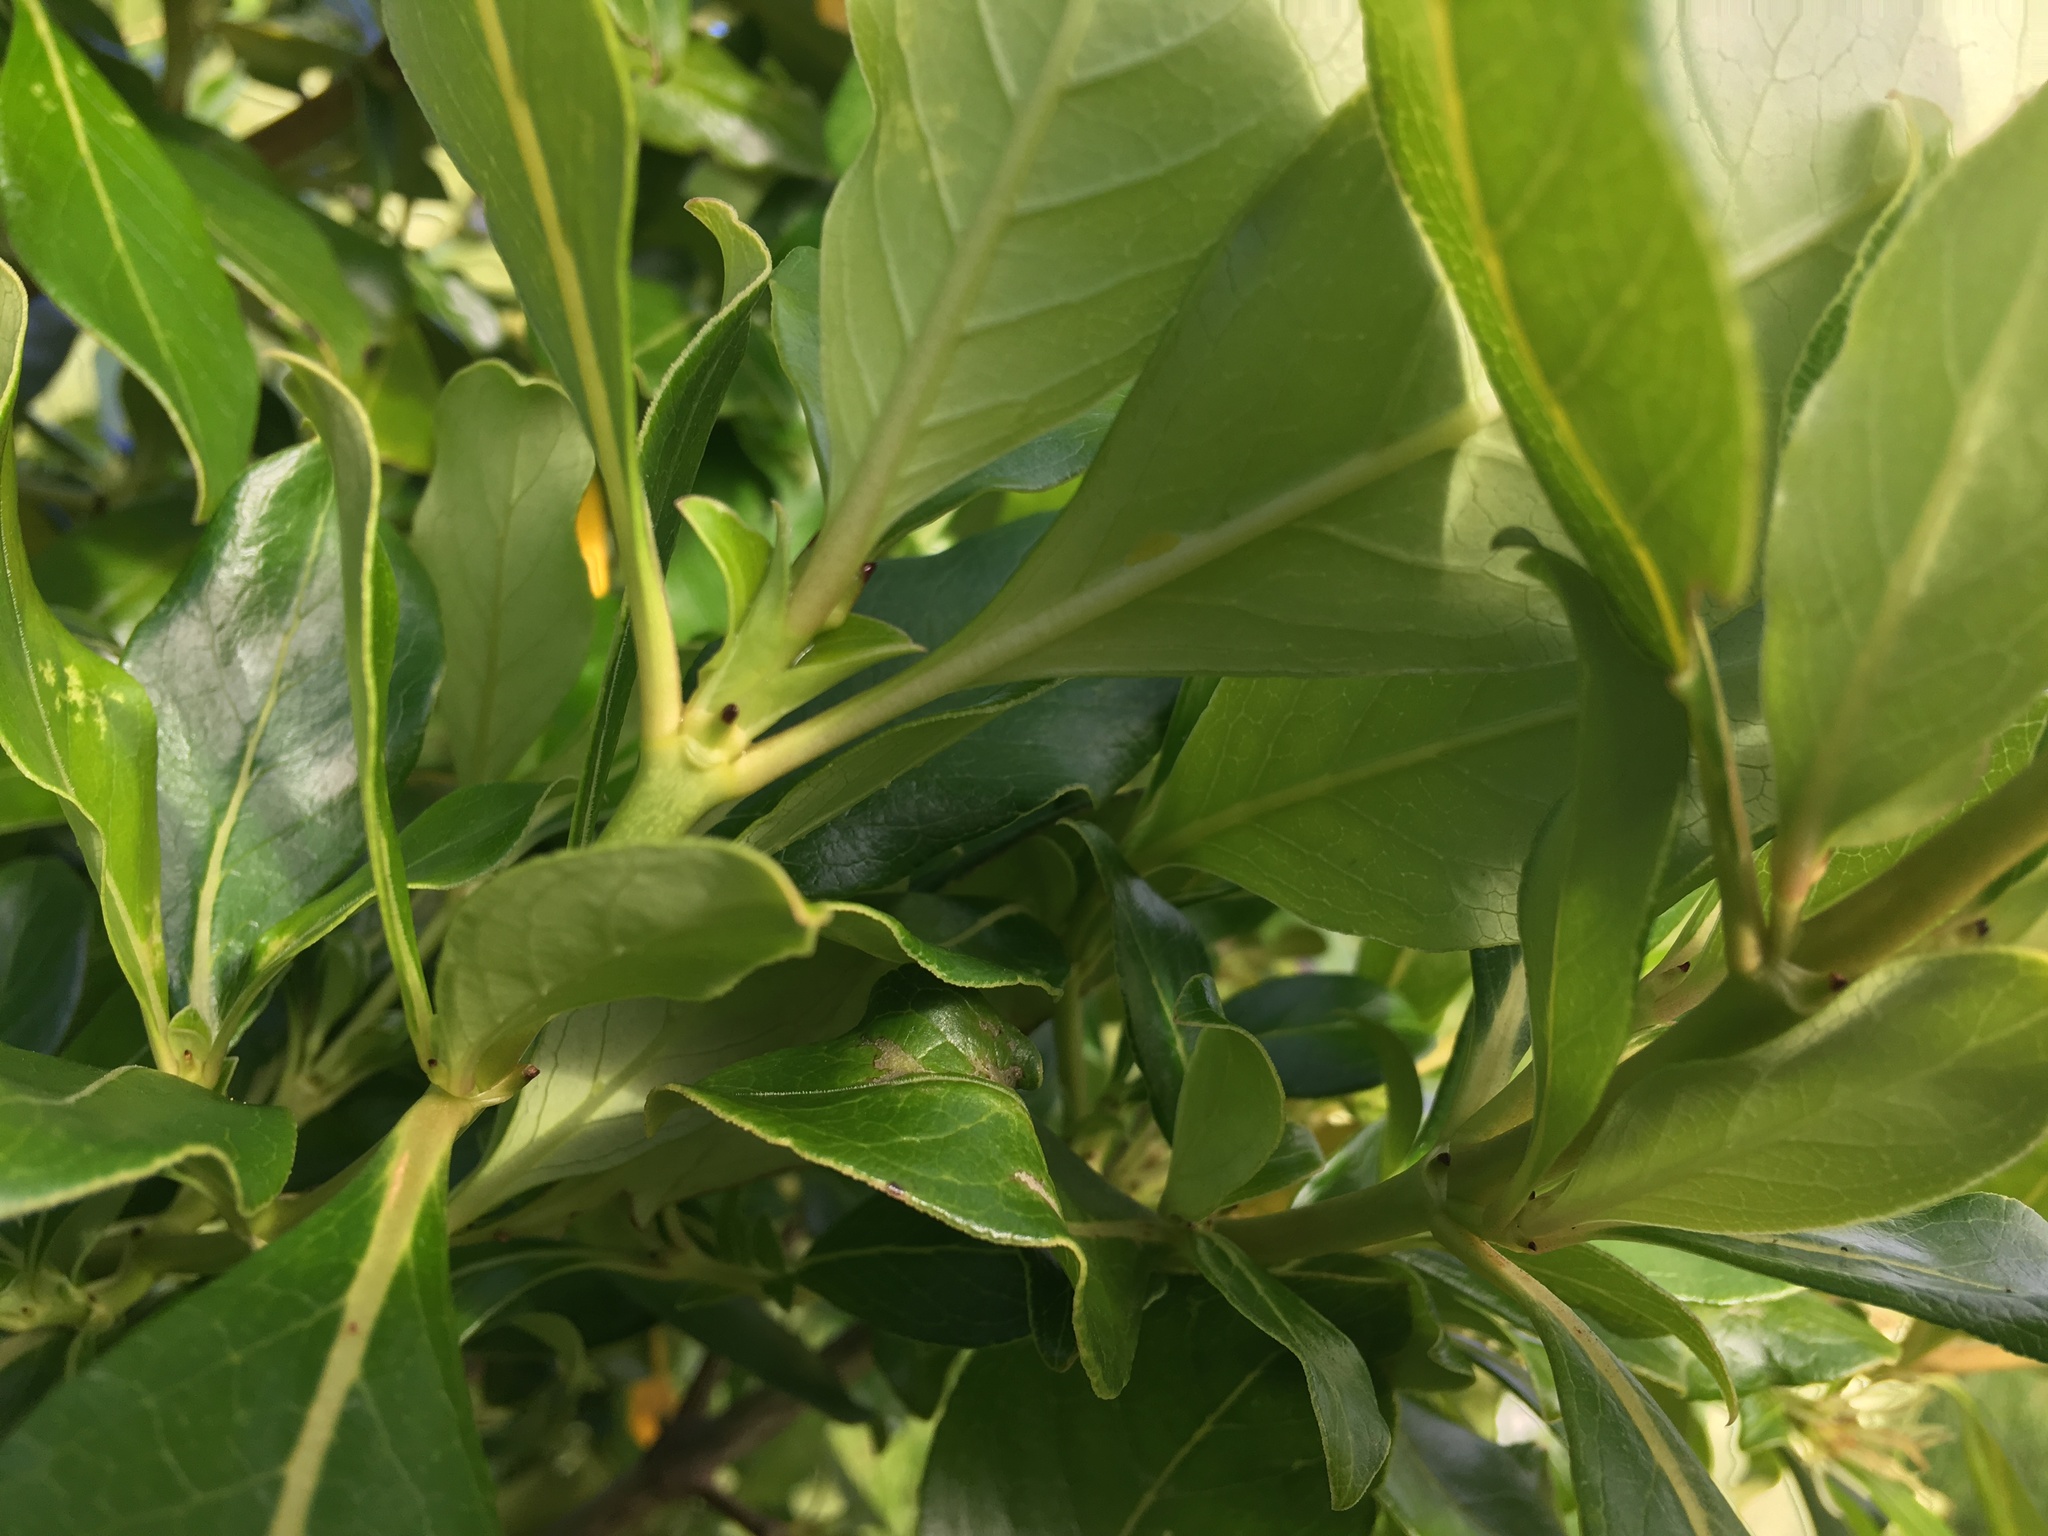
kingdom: Plantae
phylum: Tracheophyta
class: Magnoliopsida
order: Gentianales
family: Rubiaceae
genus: Coprosma
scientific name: Coprosma robusta
